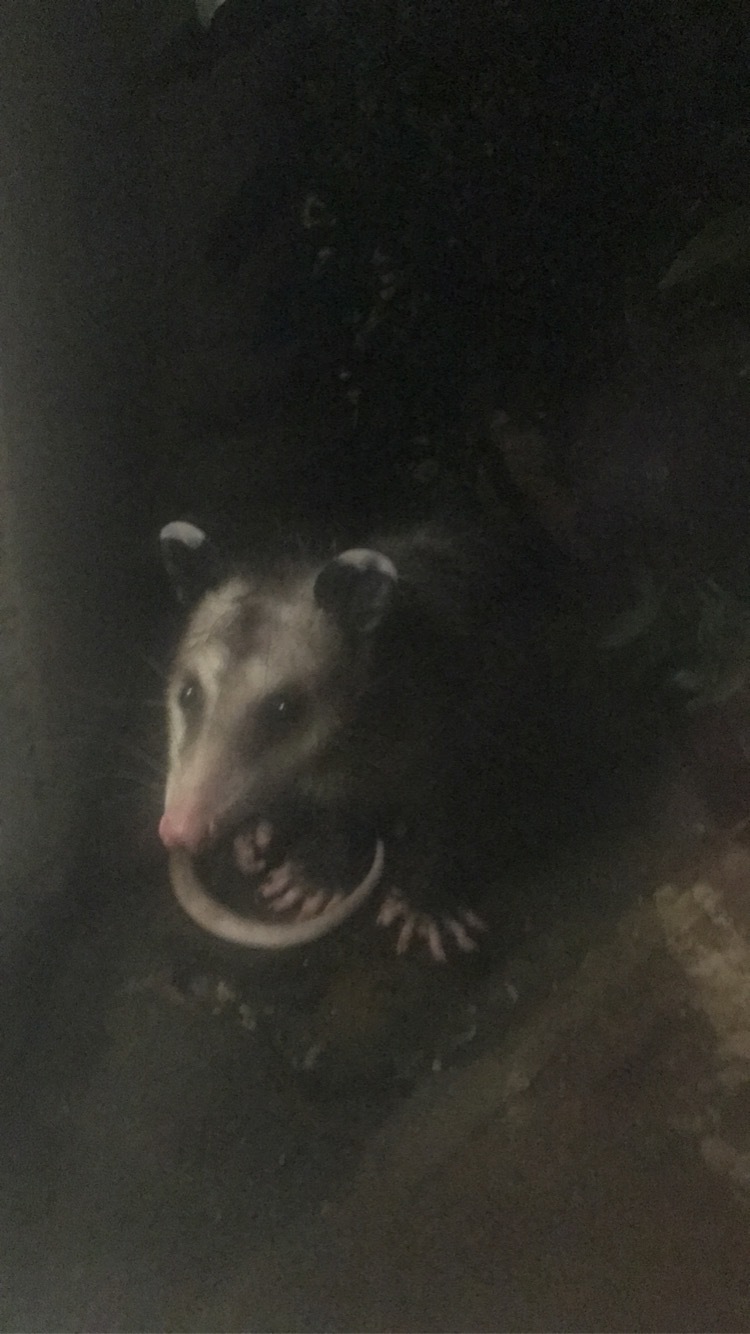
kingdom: Animalia
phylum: Chordata
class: Mammalia
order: Didelphimorphia
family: Didelphidae
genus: Didelphis
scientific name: Didelphis virginiana
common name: Virginia opossum
